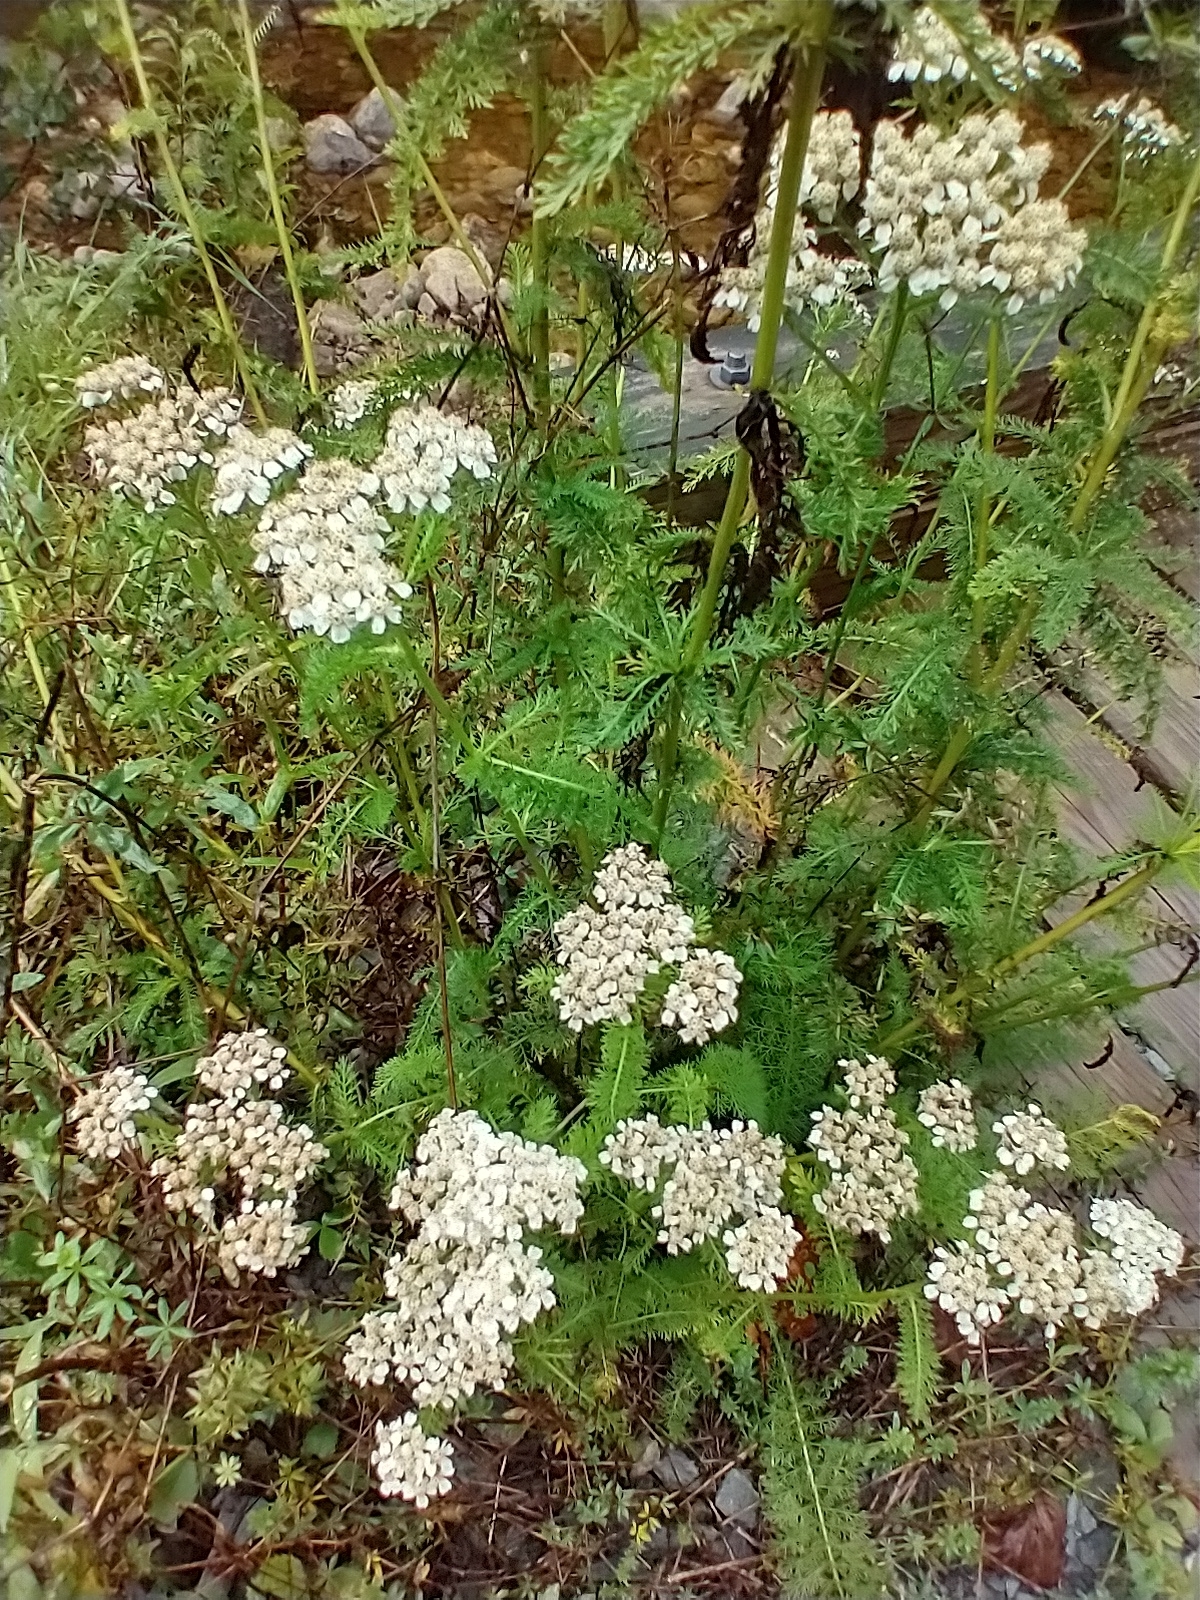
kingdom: Plantae
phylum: Tracheophyta
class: Magnoliopsida
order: Asterales
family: Asteraceae
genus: Achillea
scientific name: Achillea millefolium
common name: Yarrow
